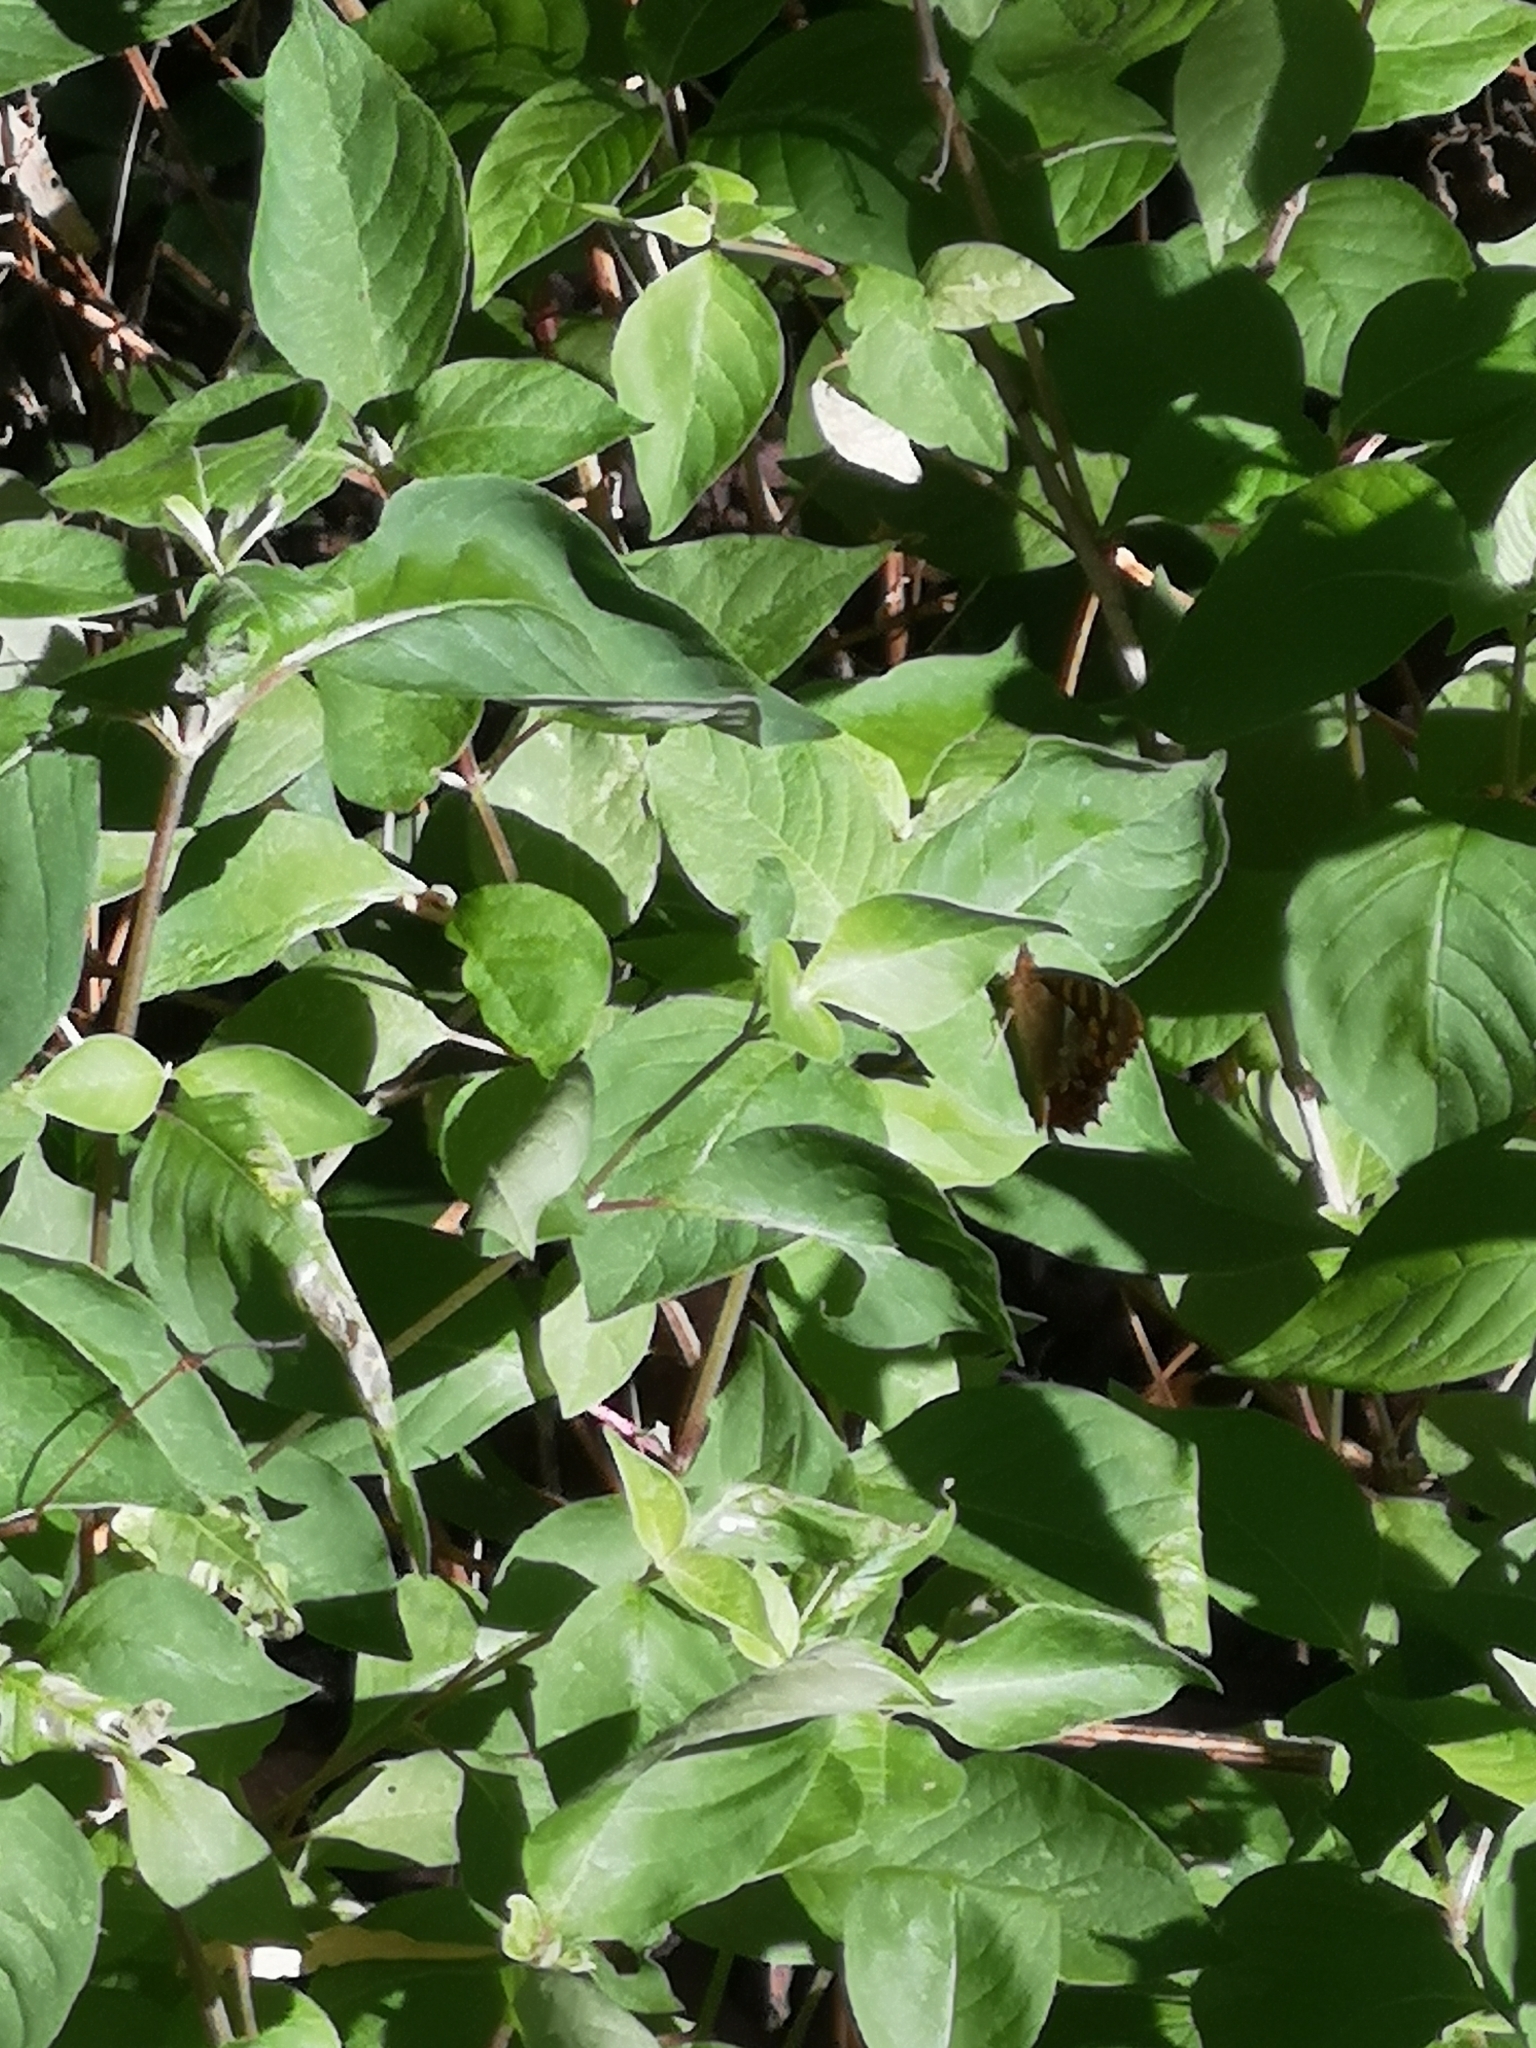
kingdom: Animalia
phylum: Arthropoda
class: Insecta
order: Lepidoptera
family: Nymphalidae
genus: Pararge
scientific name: Pararge aegeria
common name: Speckled wood
